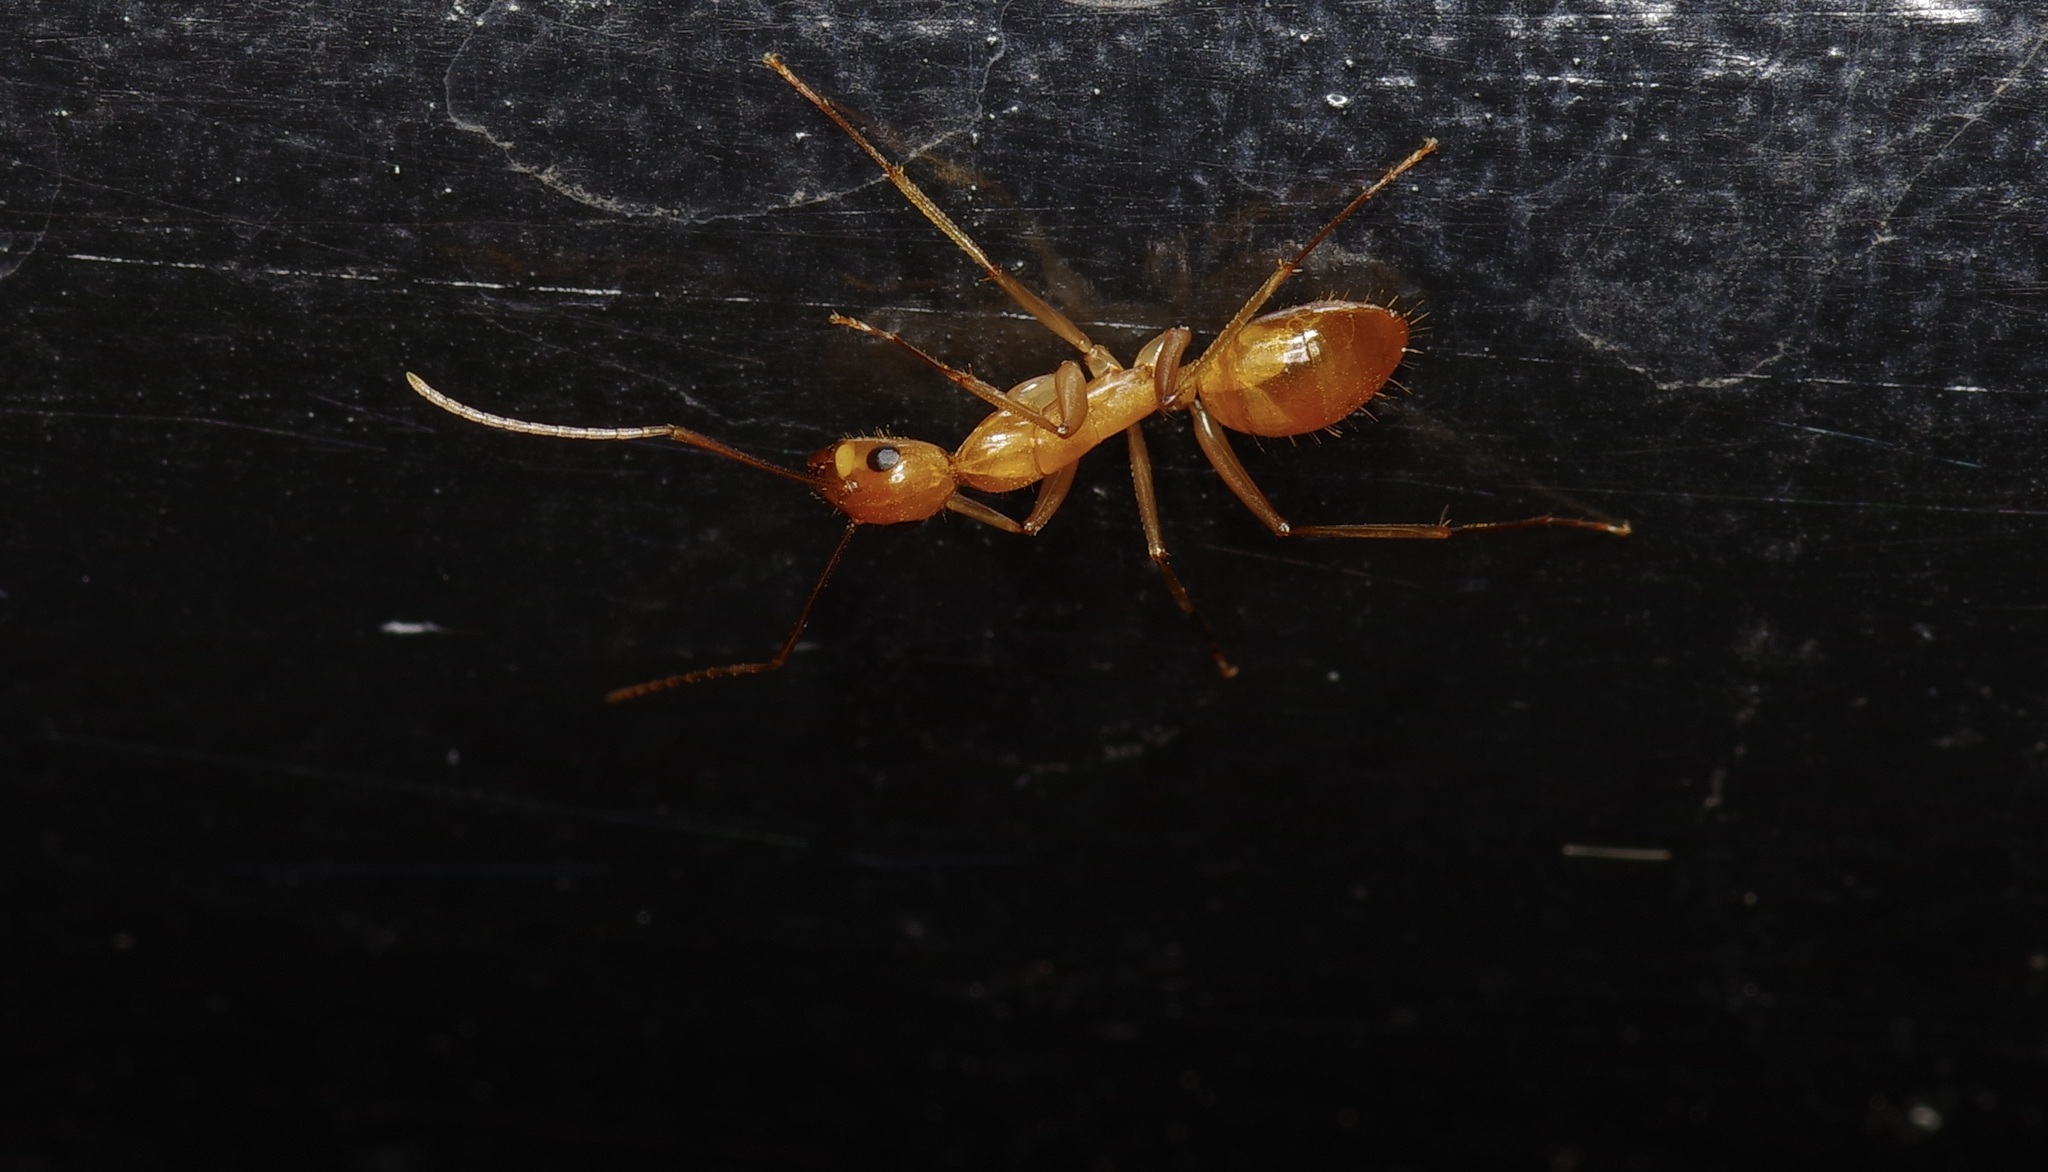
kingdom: Animalia
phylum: Arthropoda
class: Insecta
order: Hymenoptera
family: Formicidae
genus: Camponotus
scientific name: Camponotus festinatus
